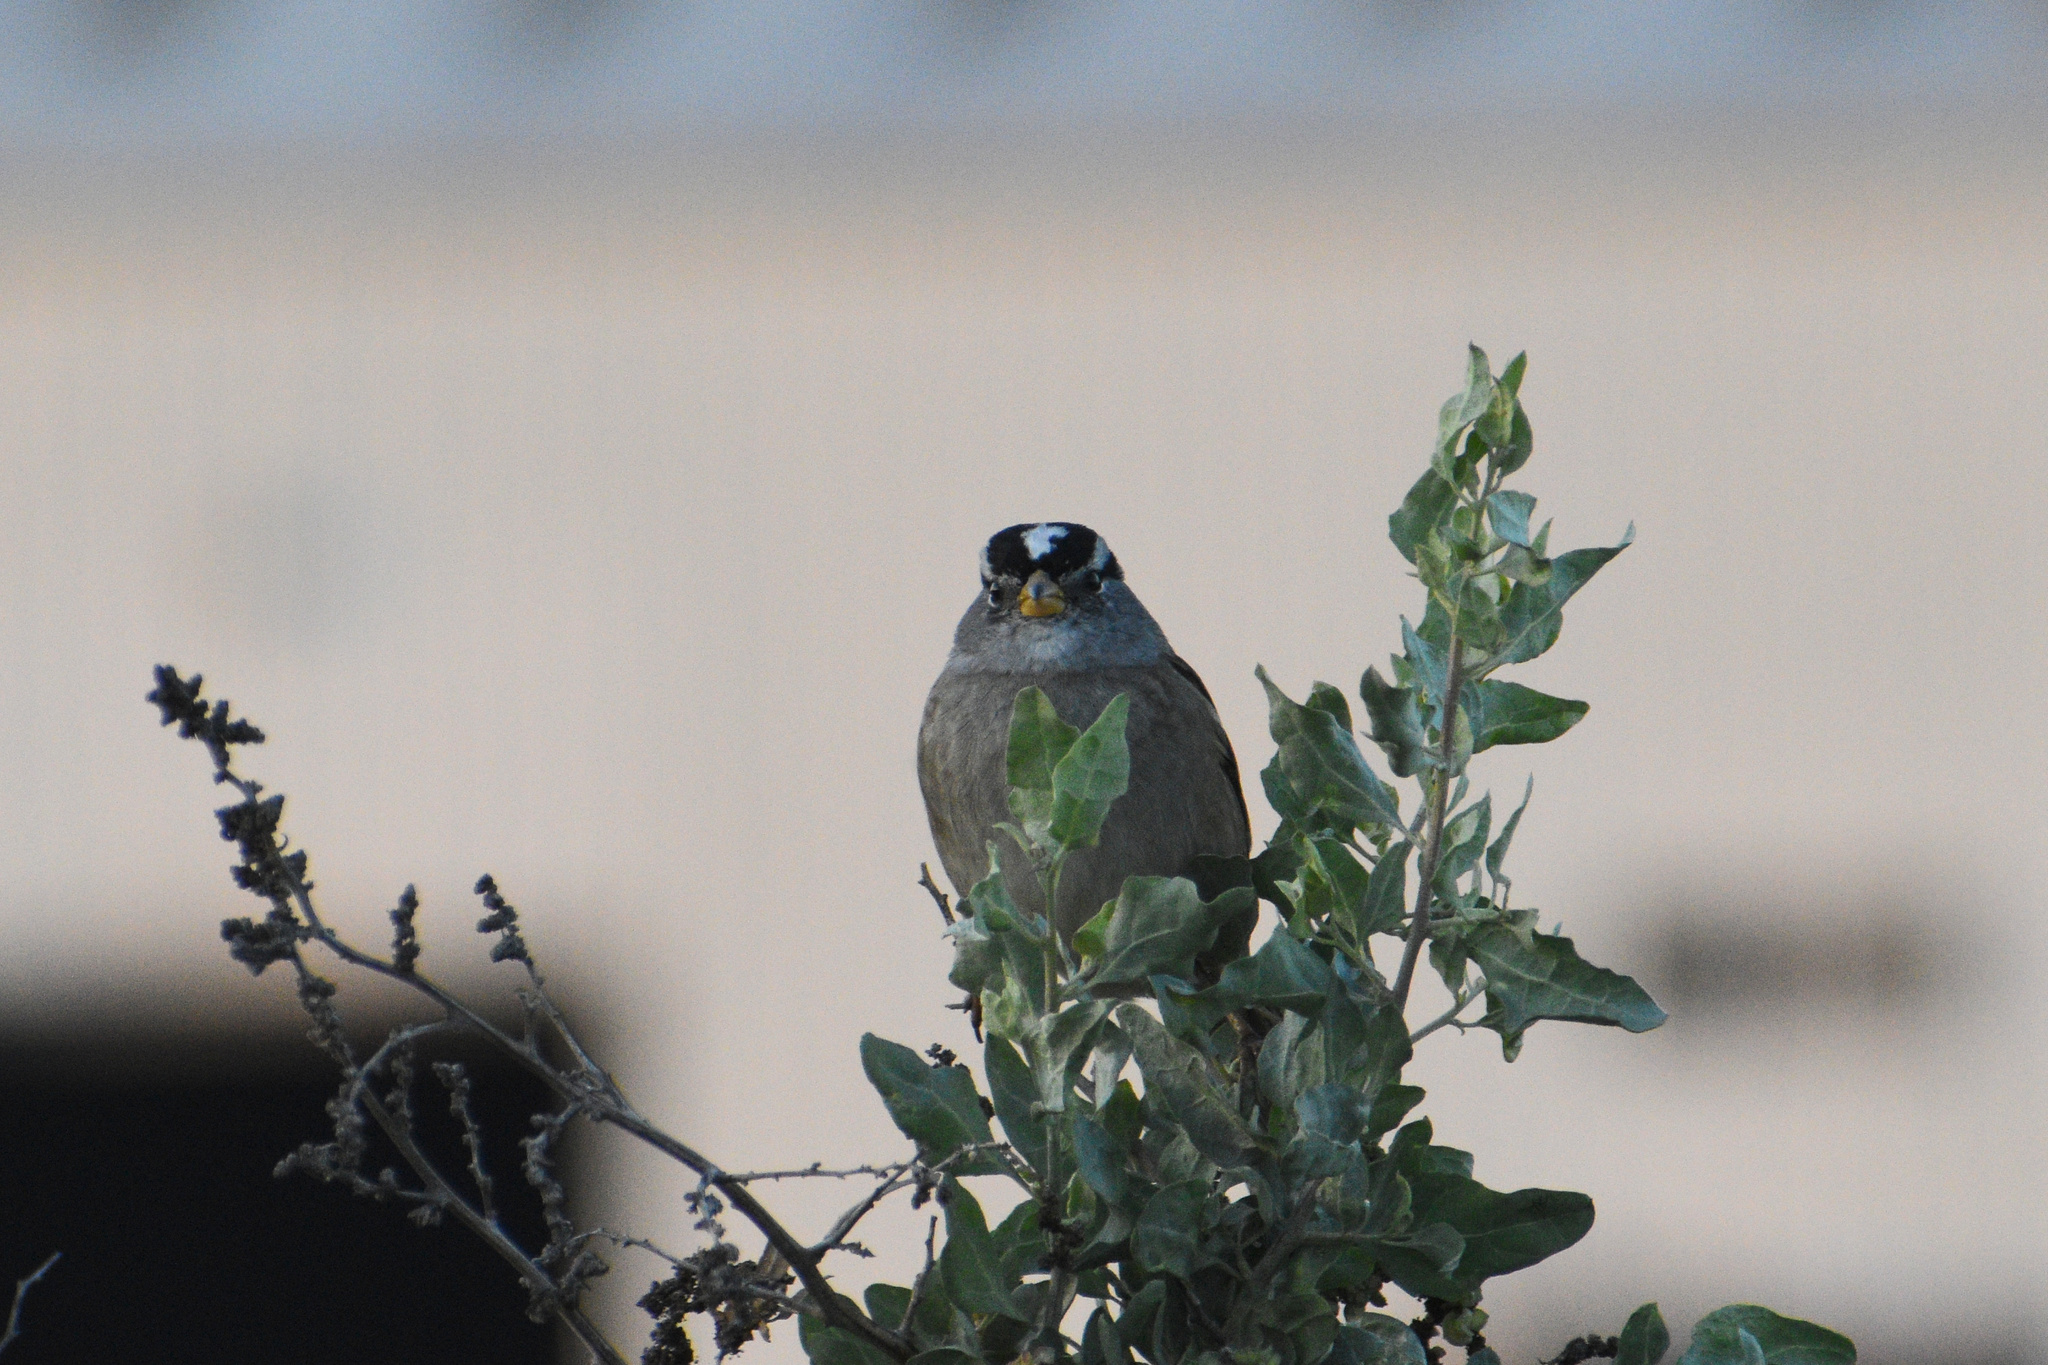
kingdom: Animalia
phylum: Chordata
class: Aves
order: Passeriformes
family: Passerellidae
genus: Zonotrichia
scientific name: Zonotrichia leucophrys
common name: White-crowned sparrow
